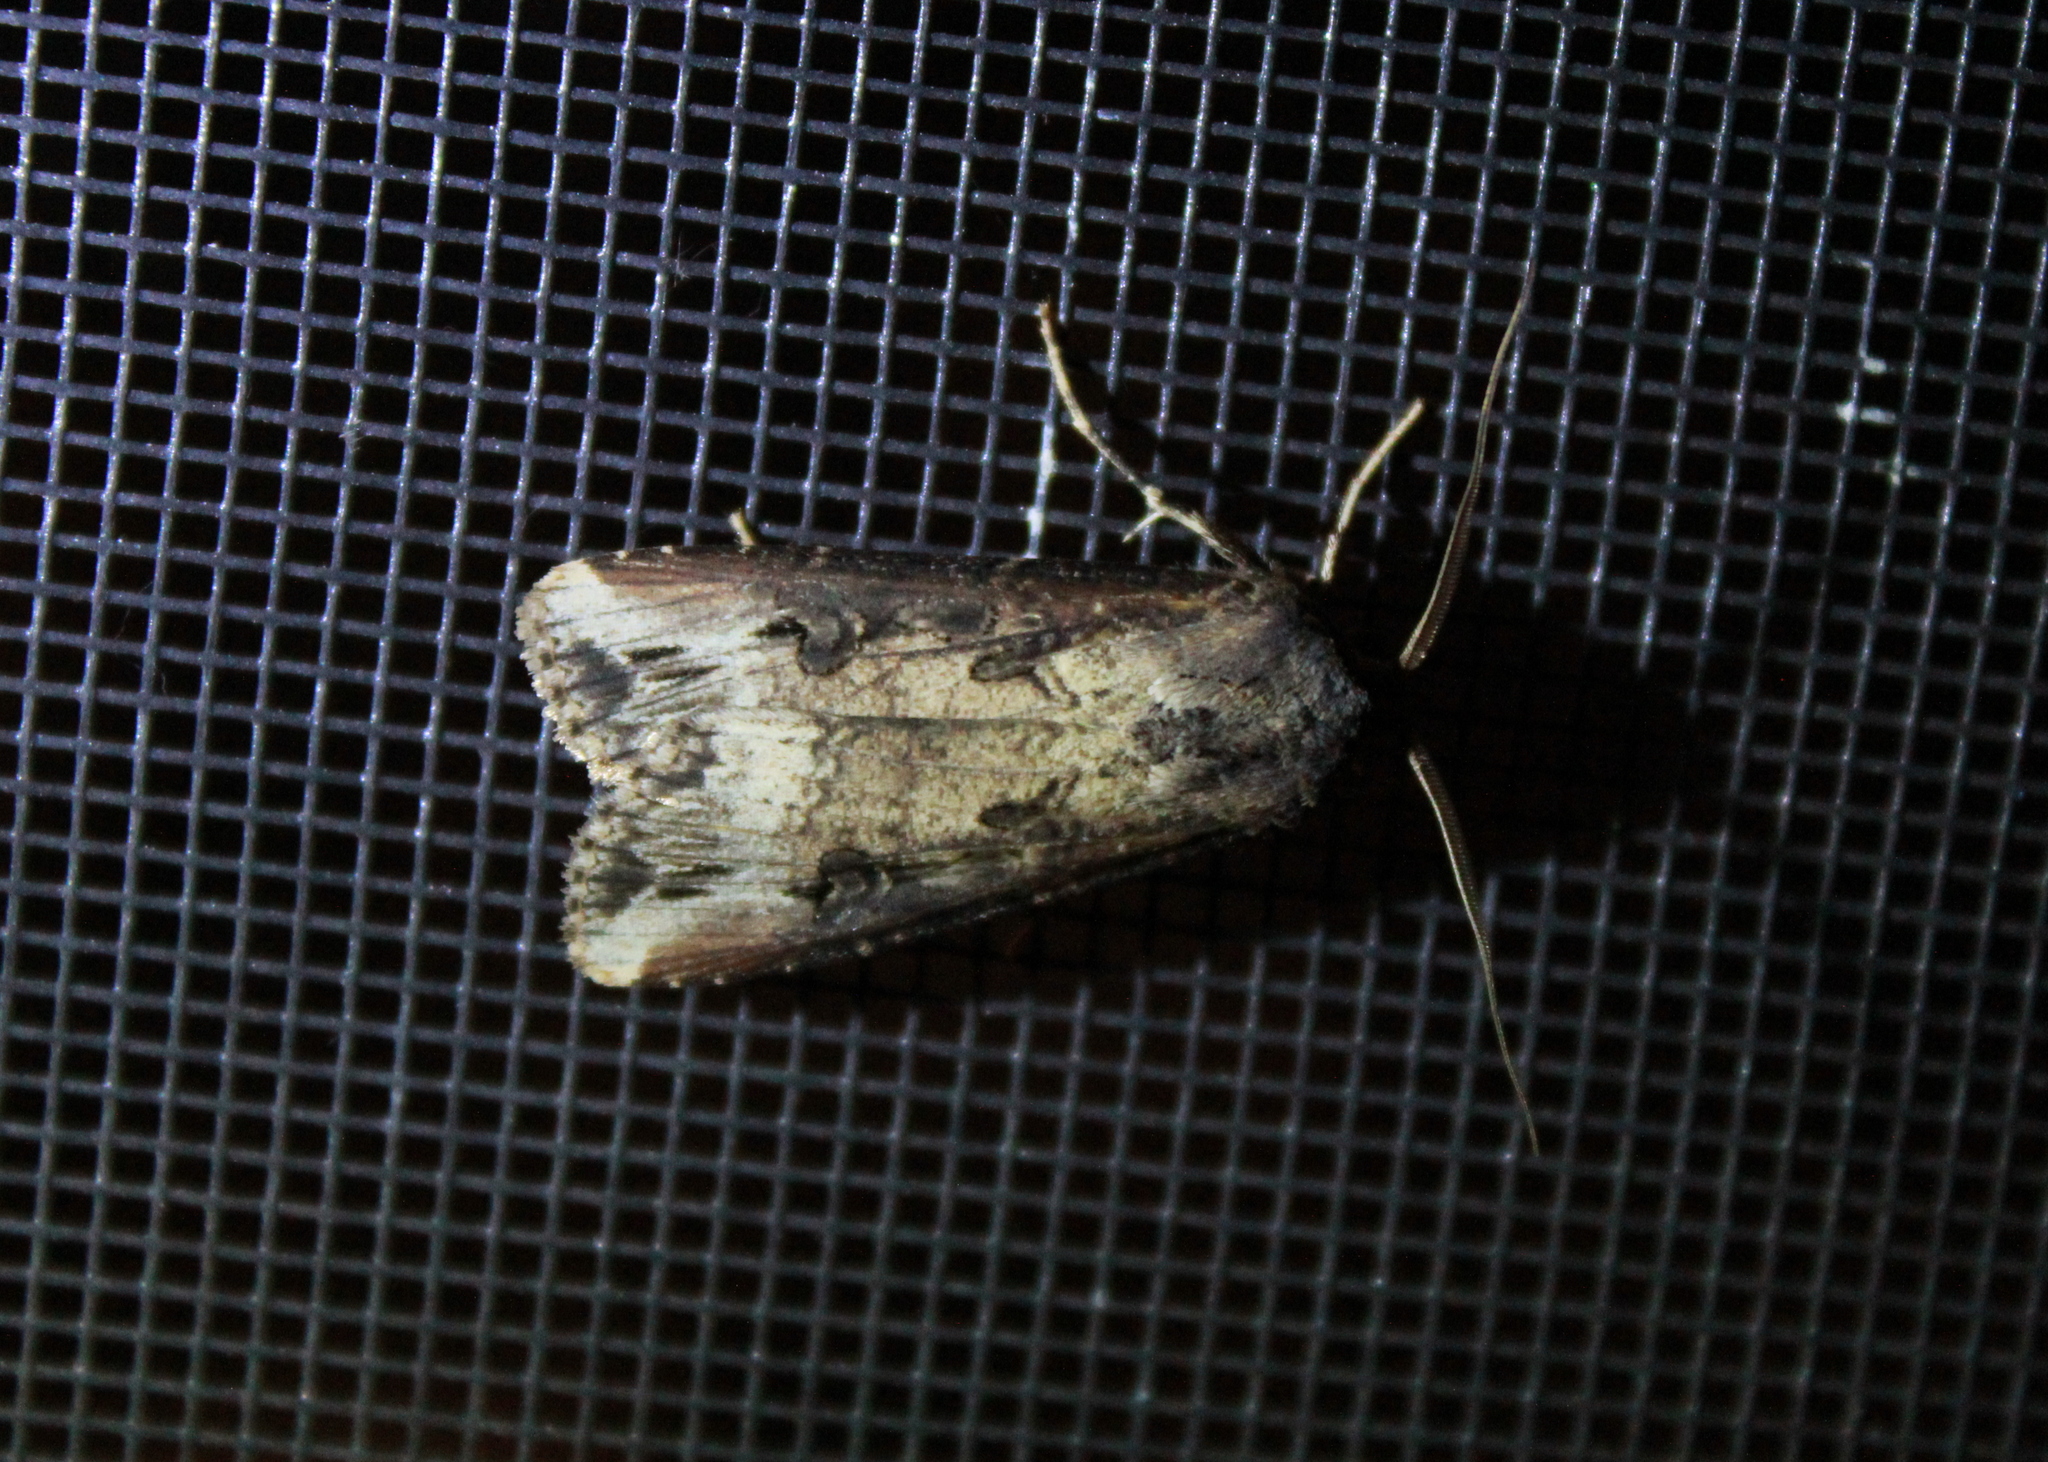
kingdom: Animalia
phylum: Arthropoda
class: Insecta
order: Lepidoptera
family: Noctuidae
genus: Agrotis
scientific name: Agrotis ipsilon
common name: Dark sword-grass
